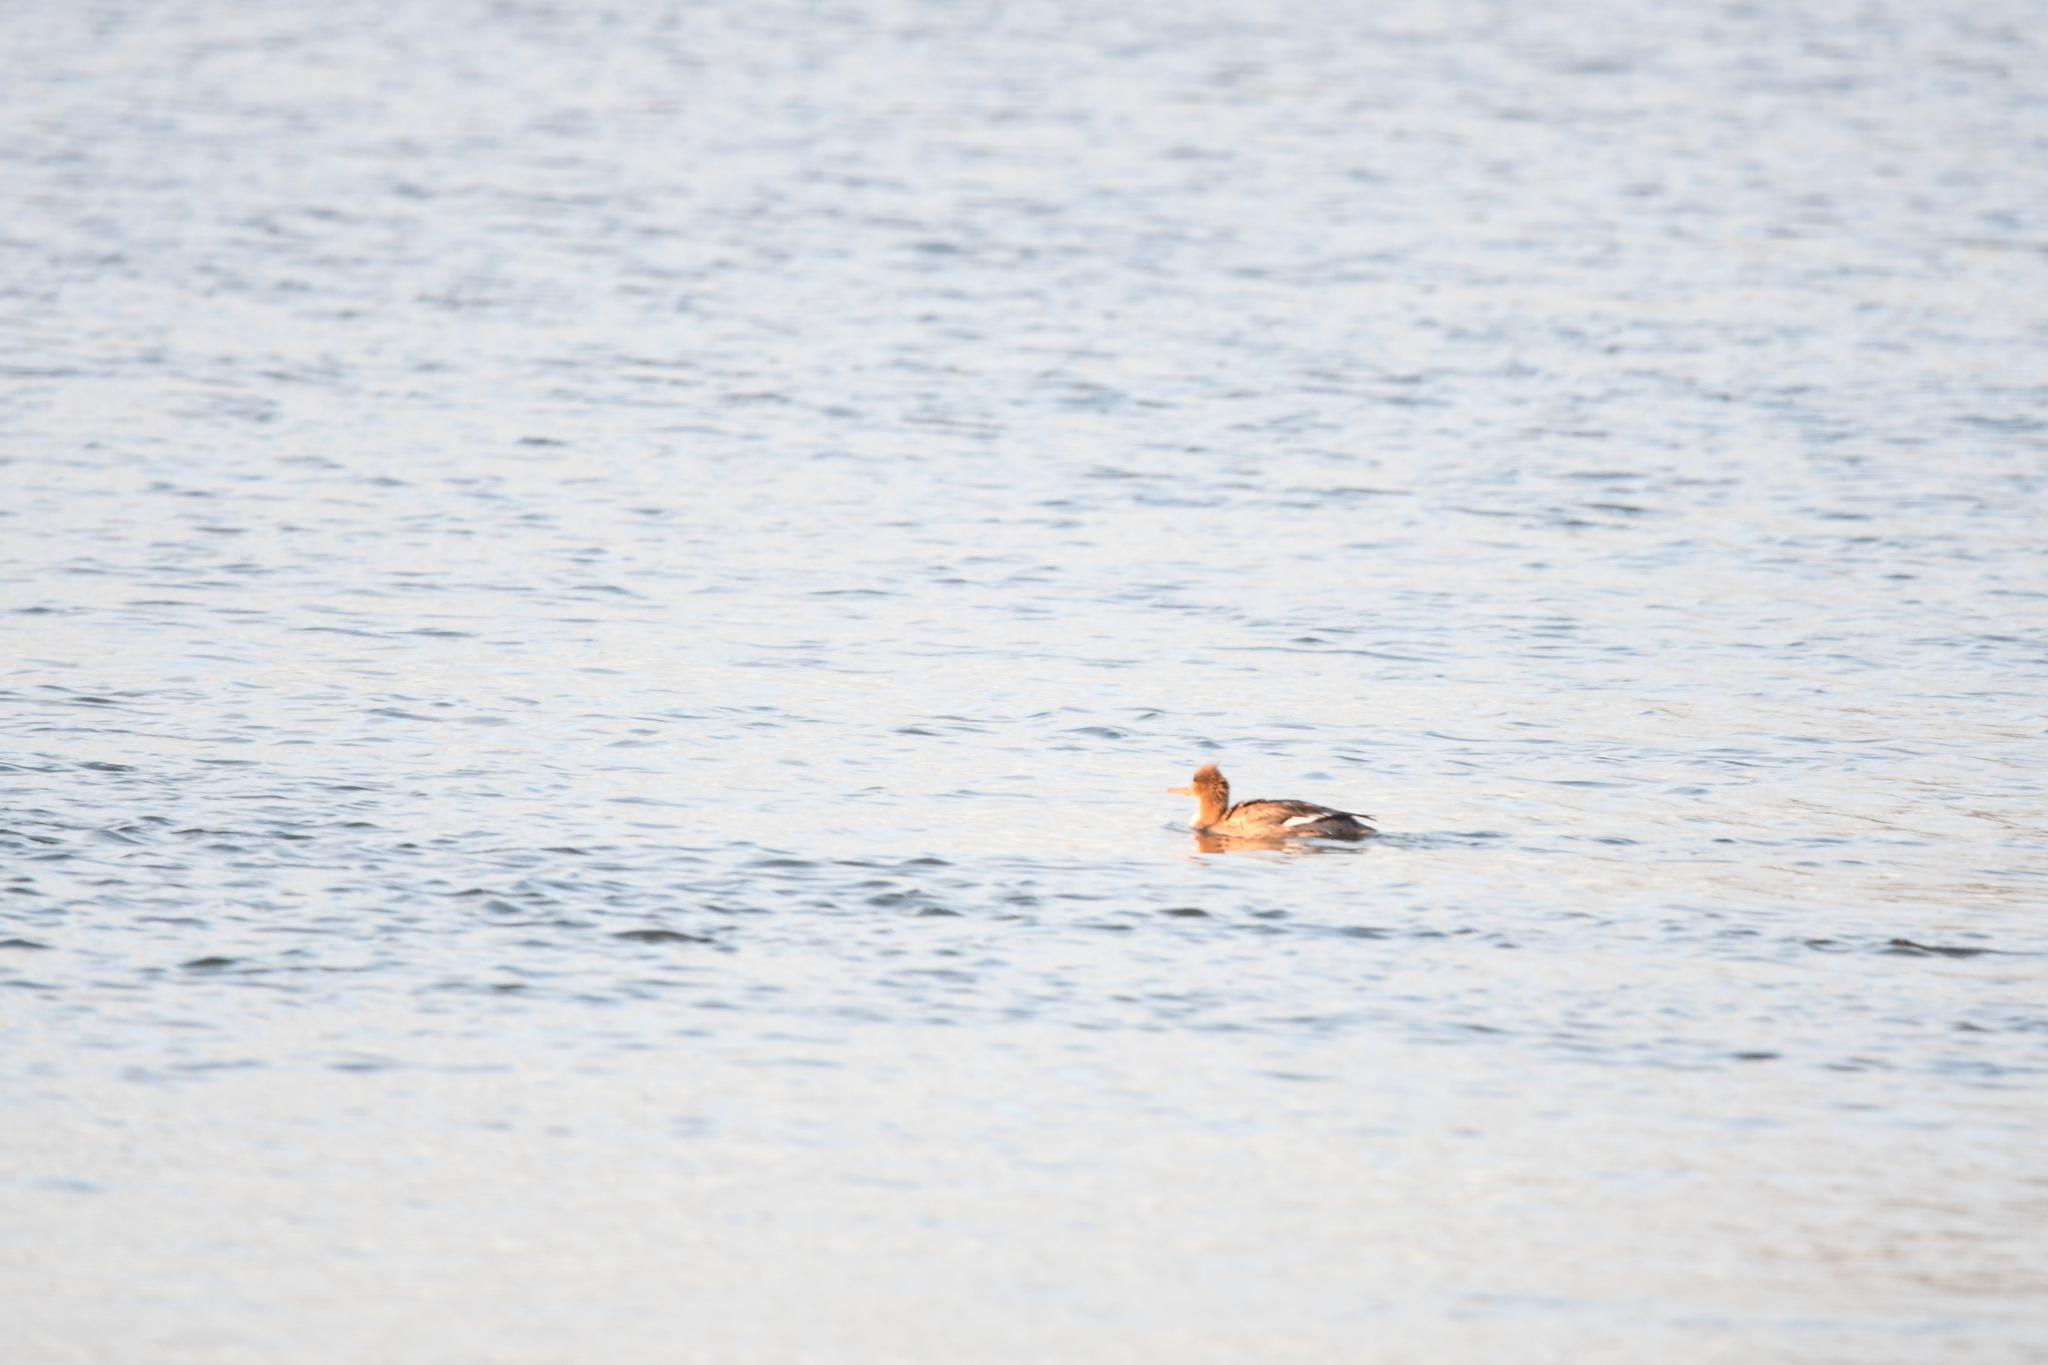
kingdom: Animalia
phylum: Chordata
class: Aves
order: Anseriformes
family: Anatidae
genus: Mergus
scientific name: Mergus serrator
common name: Red-breasted merganser
